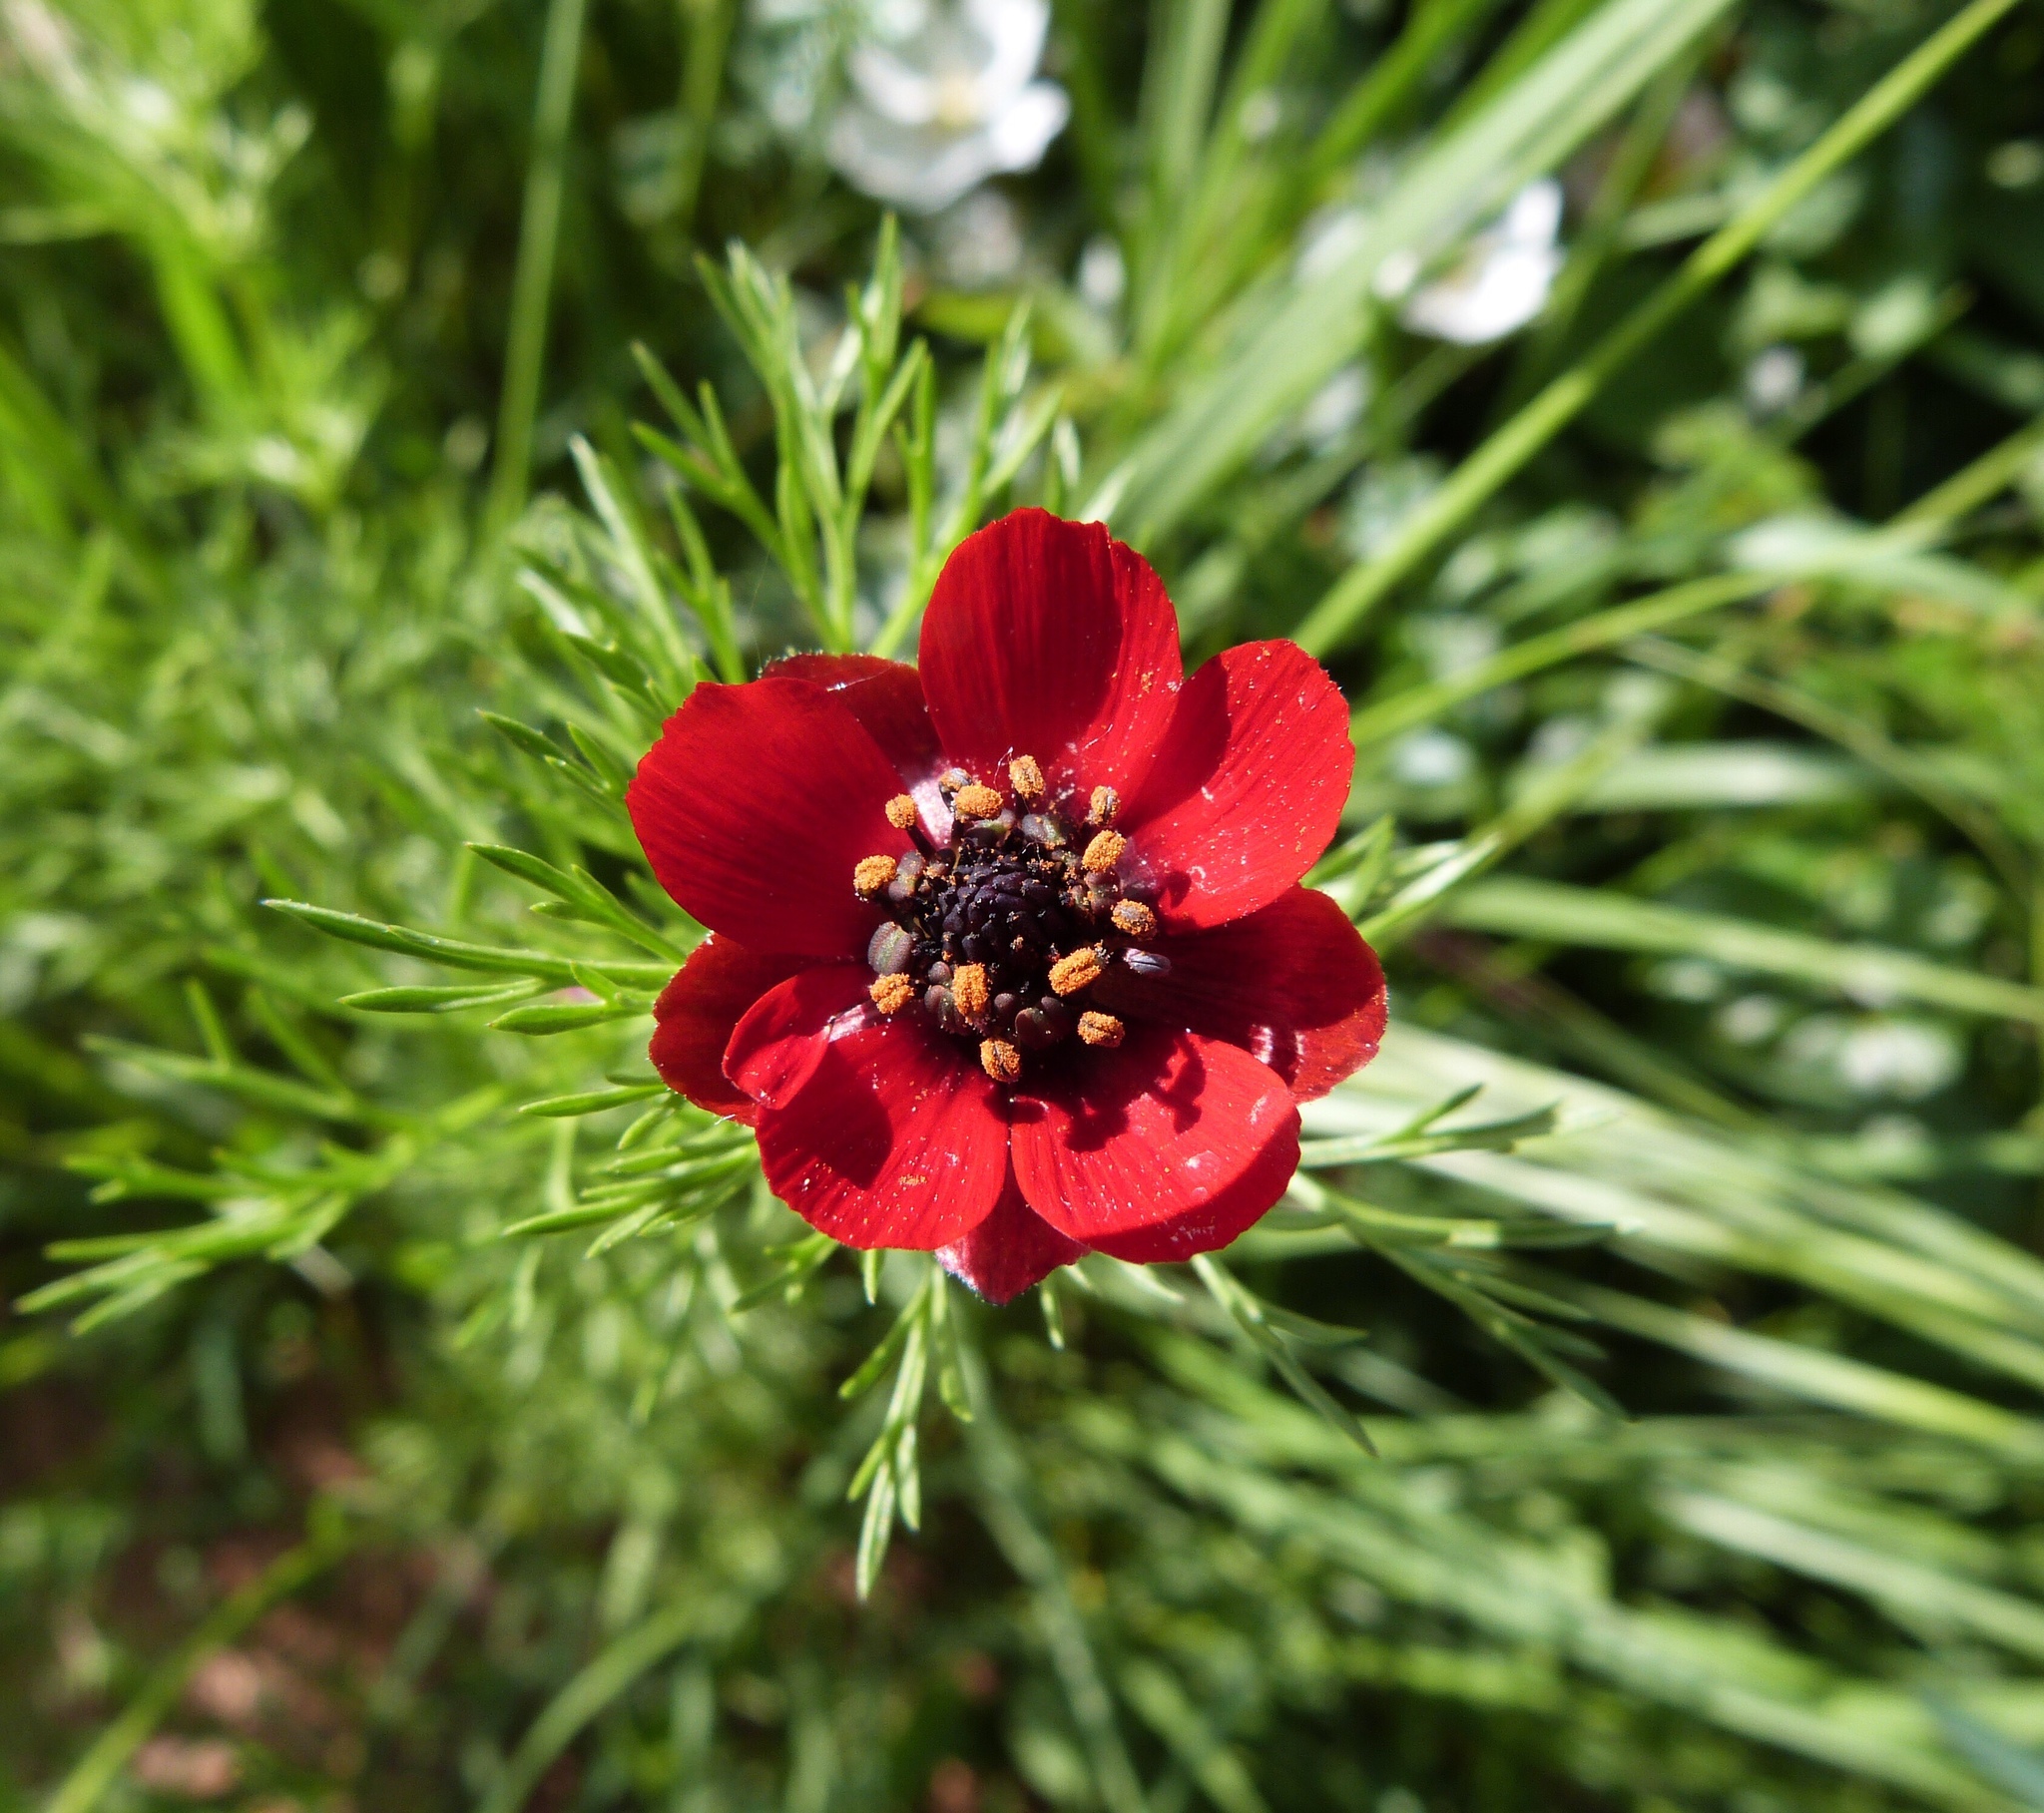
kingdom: Plantae
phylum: Tracheophyta
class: Magnoliopsida
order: Ranunculales
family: Ranunculaceae
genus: Adonis
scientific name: Adonis annua
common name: Pheasant's-eye
